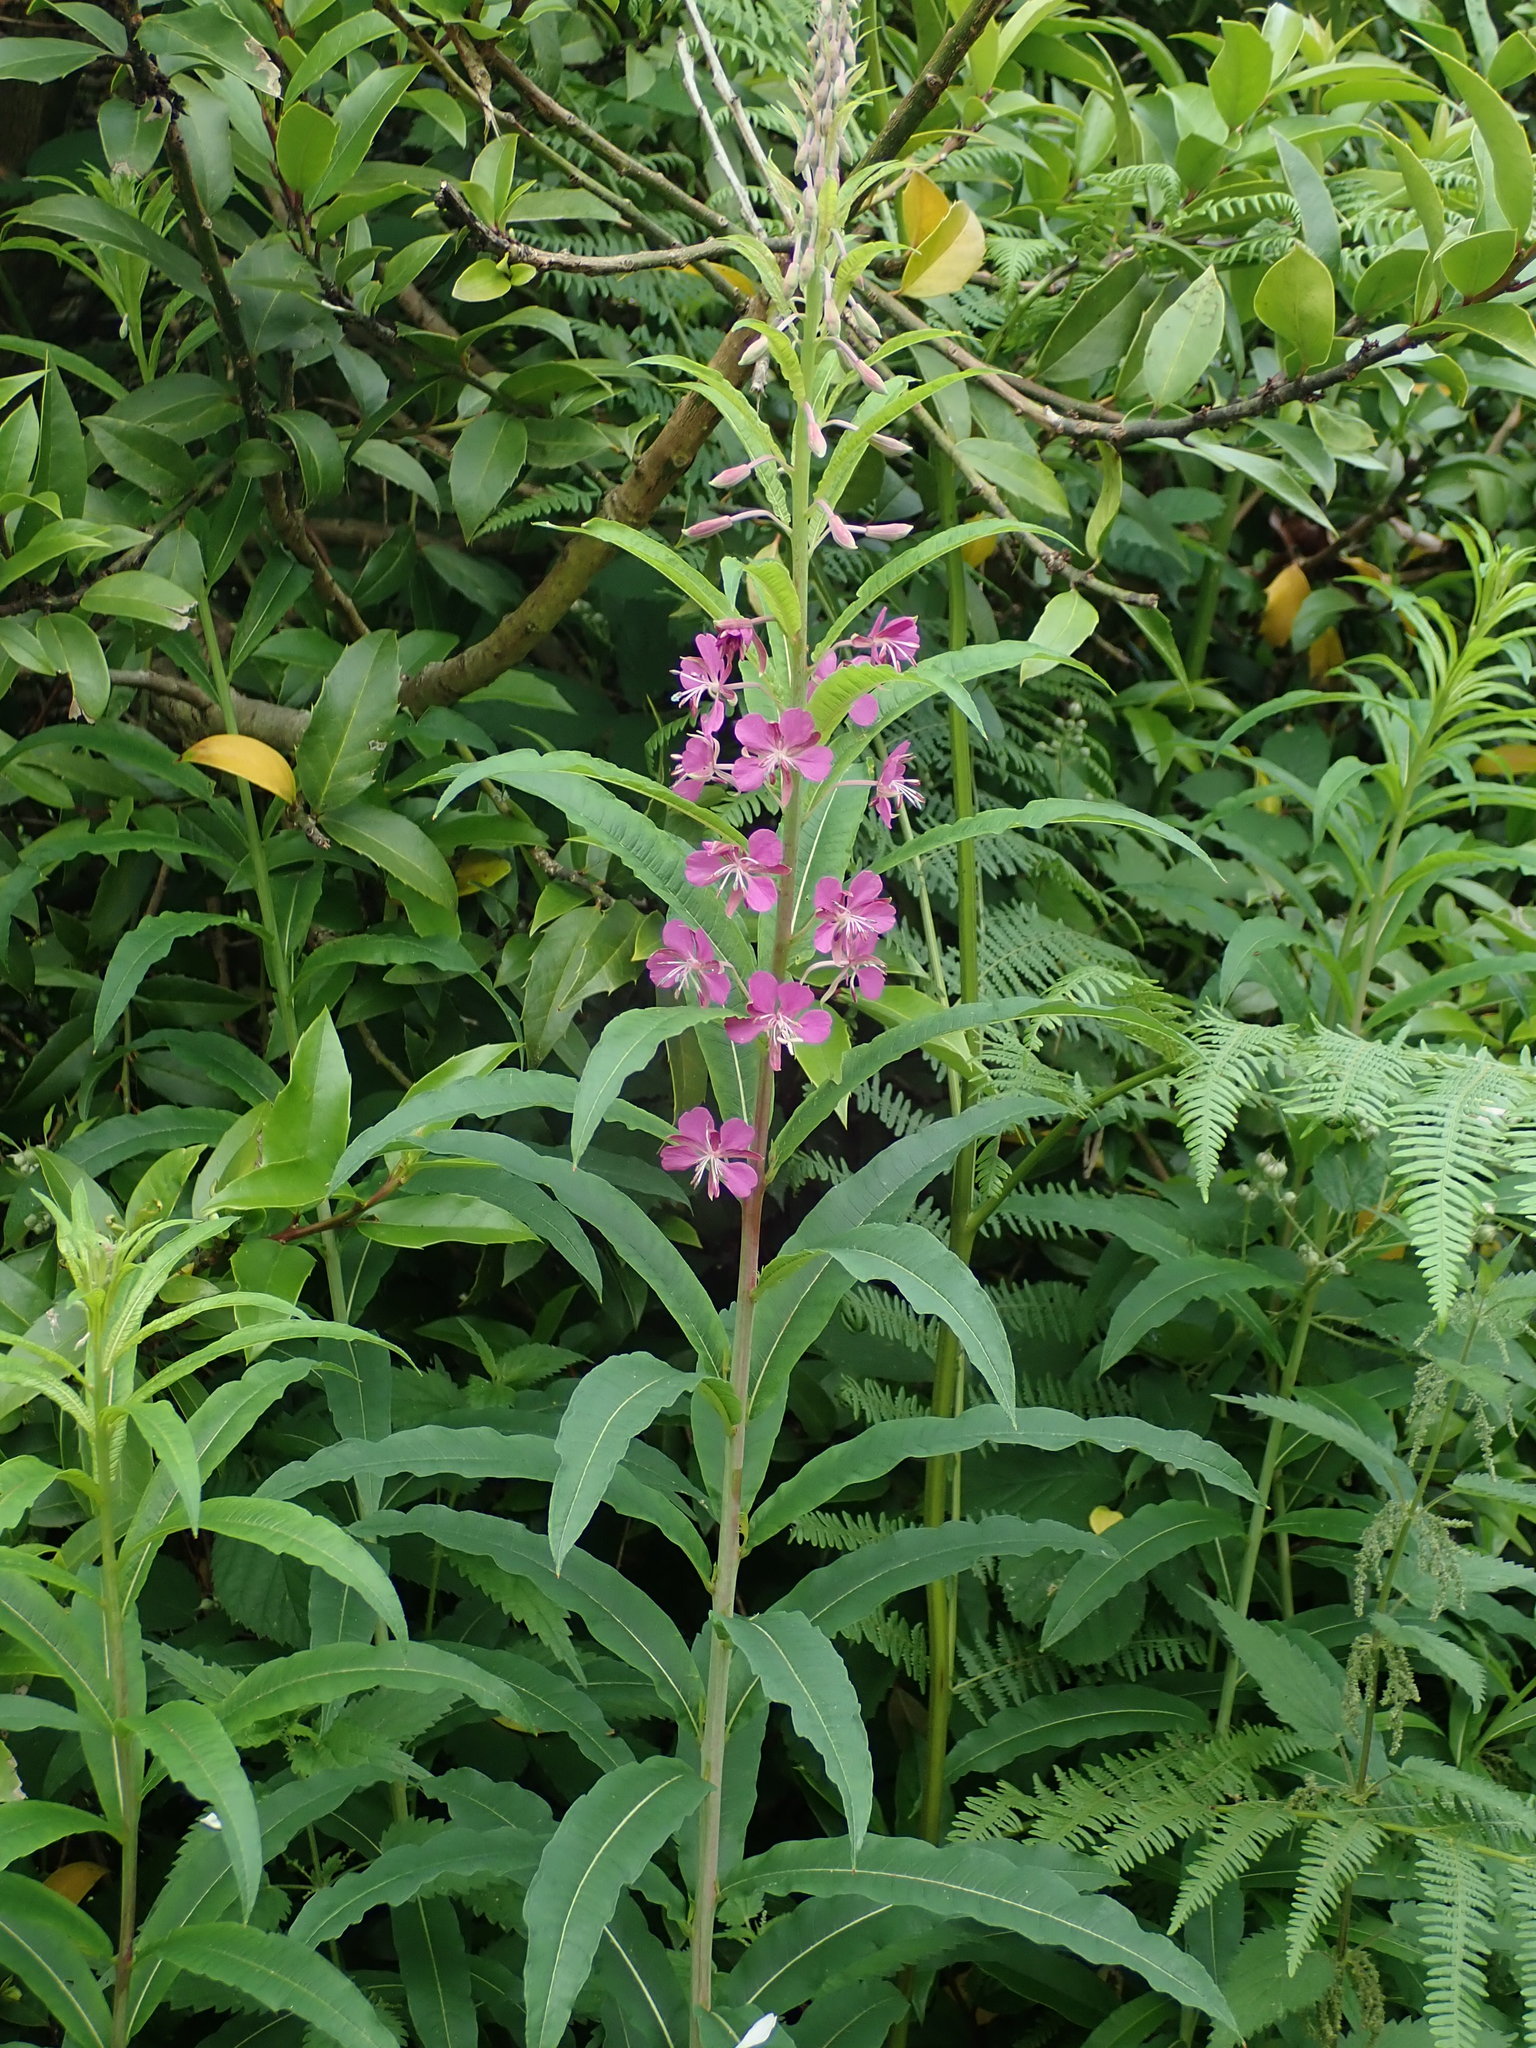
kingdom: Plantae
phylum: Tracheophyta
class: Magnoliopsida
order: Myrtales
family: Onagraceae
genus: Chamaenerion
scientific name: Chamaenerion angustifolium
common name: Fireweed
